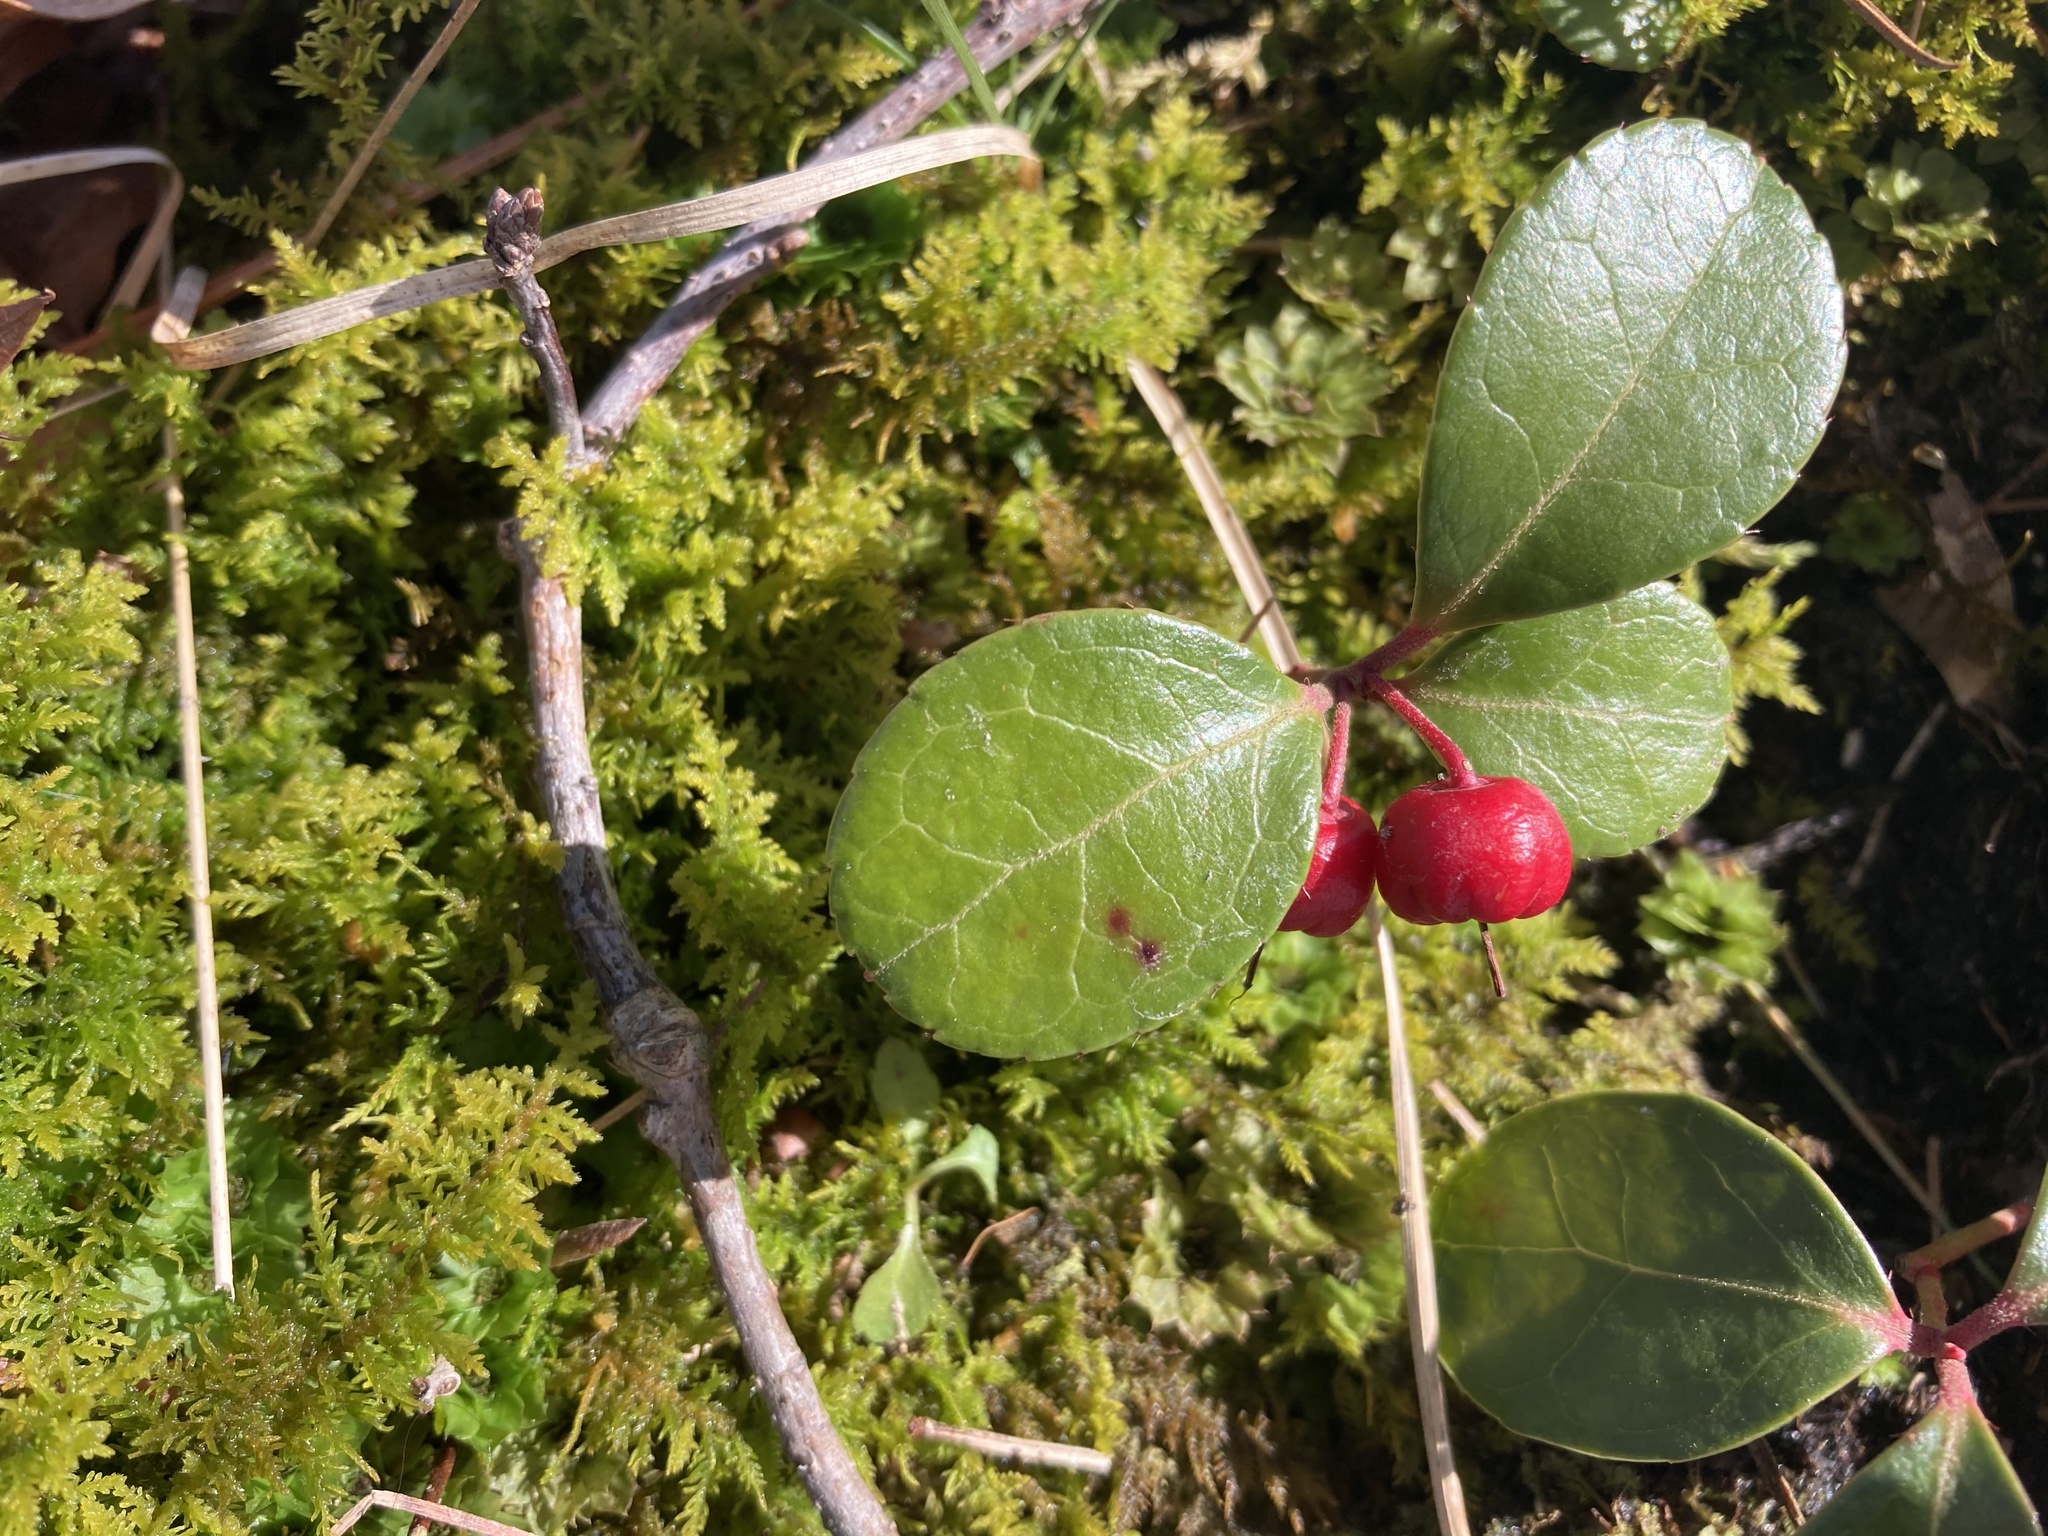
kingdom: Plantae
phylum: Tracheophyta
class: Magnoliopsida
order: Ericales
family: Ericaceae
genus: Gaultheria
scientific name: Gaultheria procumbens
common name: Checkerberry
